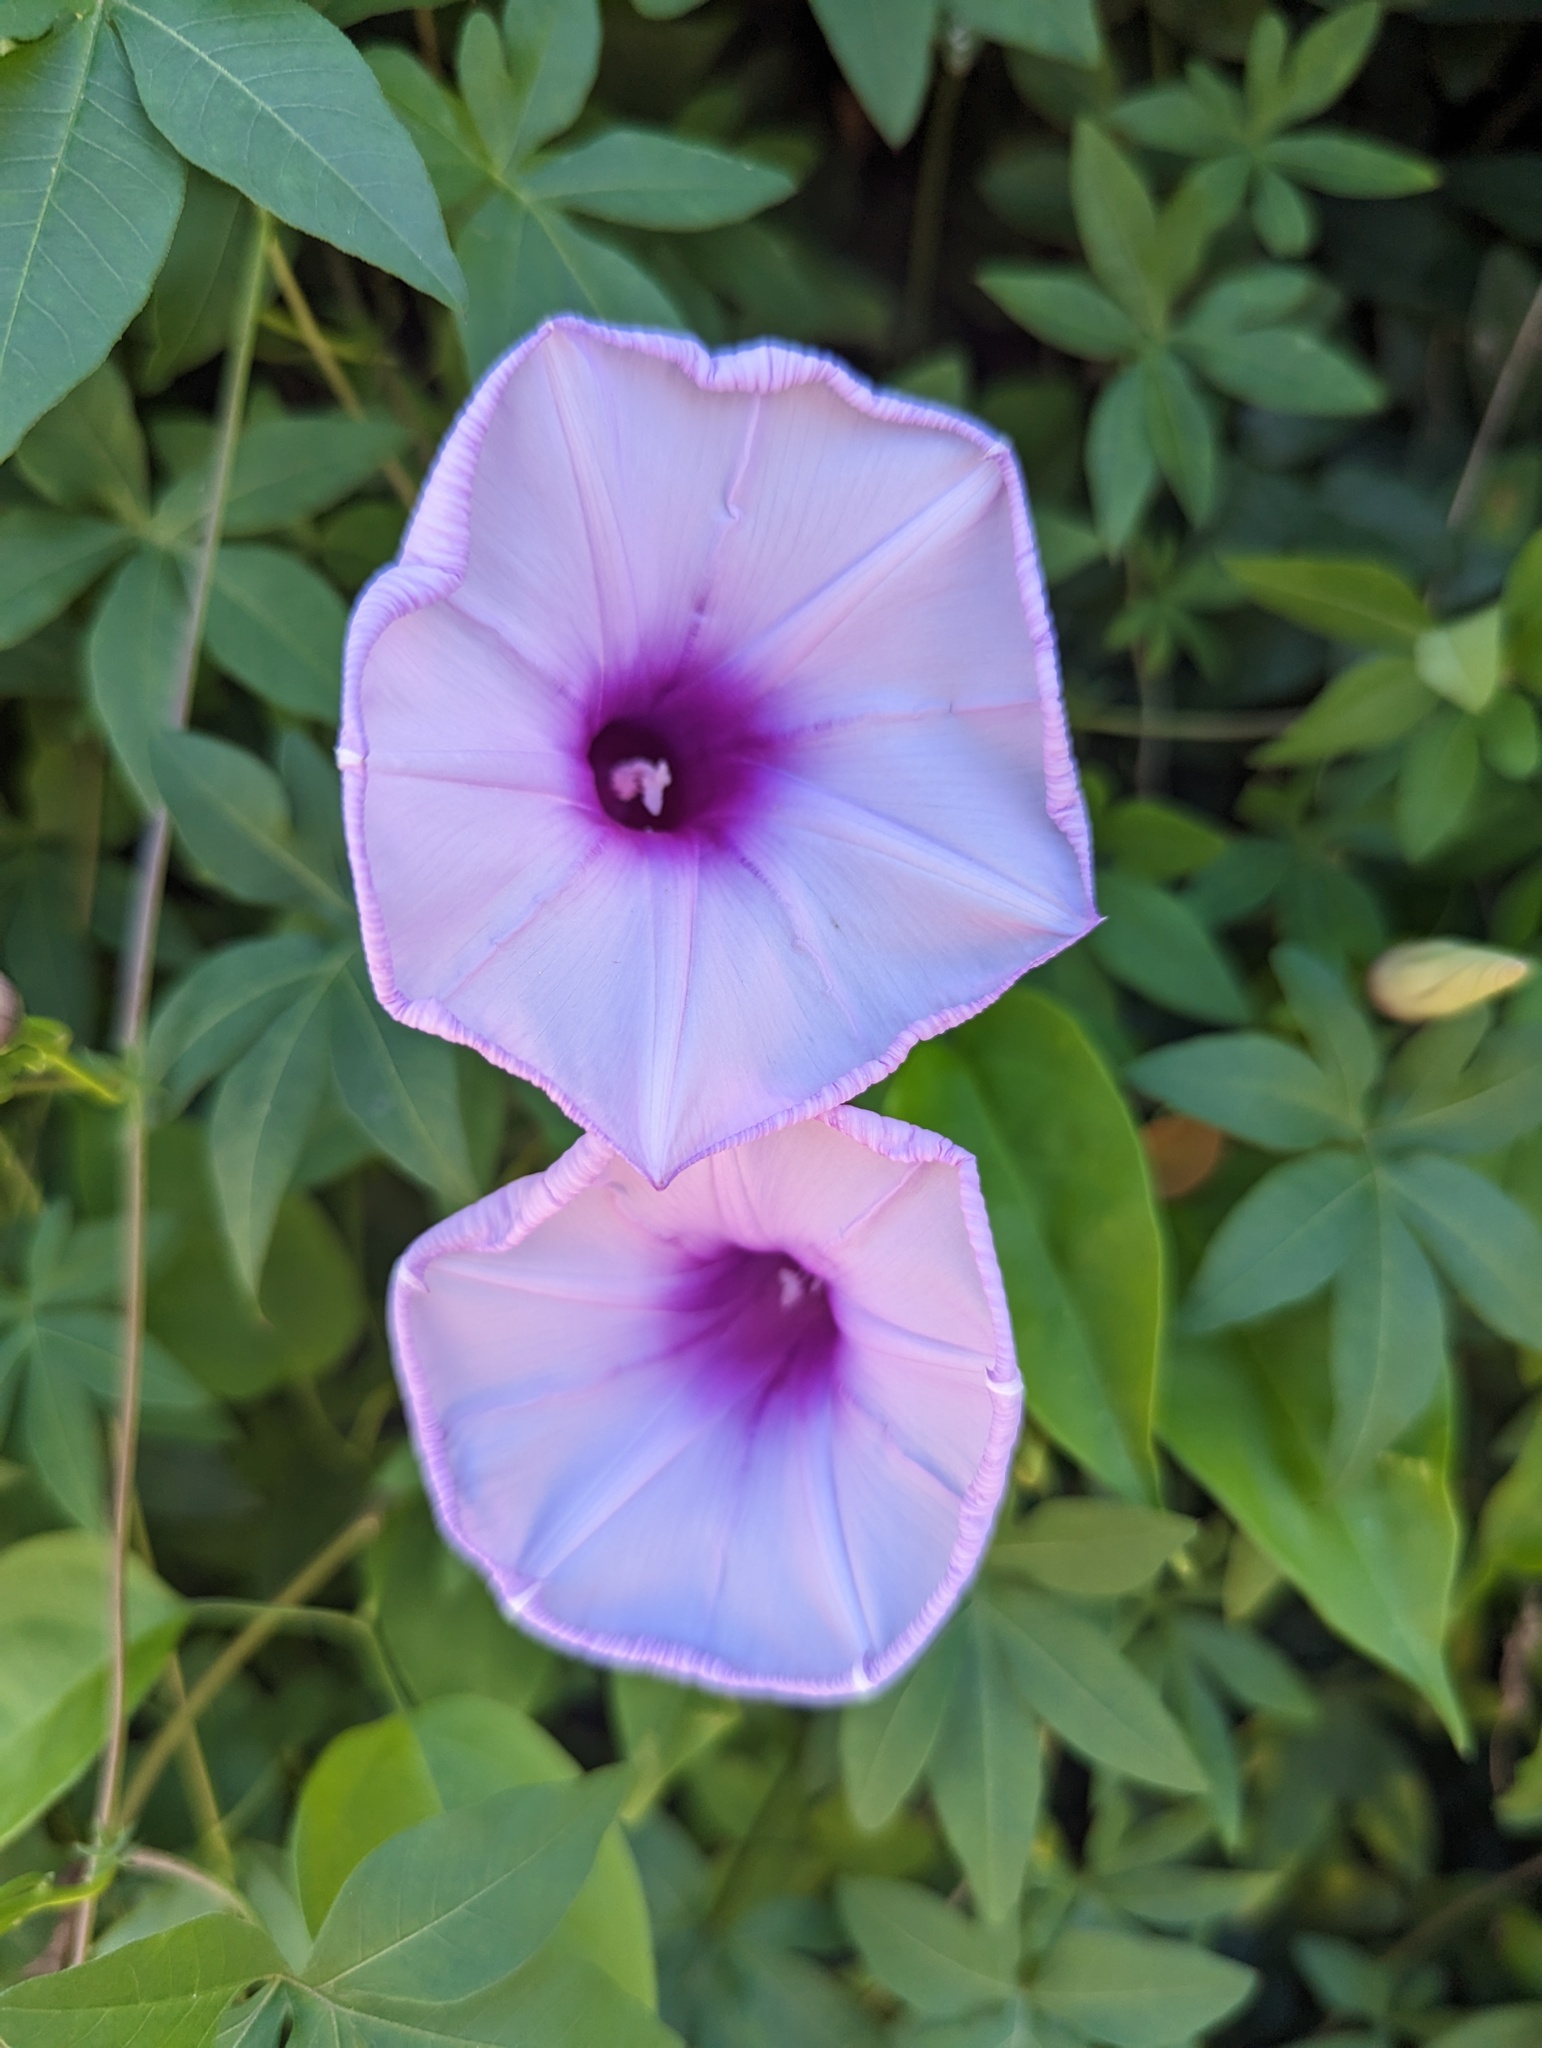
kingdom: Plantae
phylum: Tracheophyta
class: Magnoliopsida
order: Solanales
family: Convolvulaceae
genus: Ipomoea
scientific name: Ipomoea cairica
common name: Mile a minute vine
